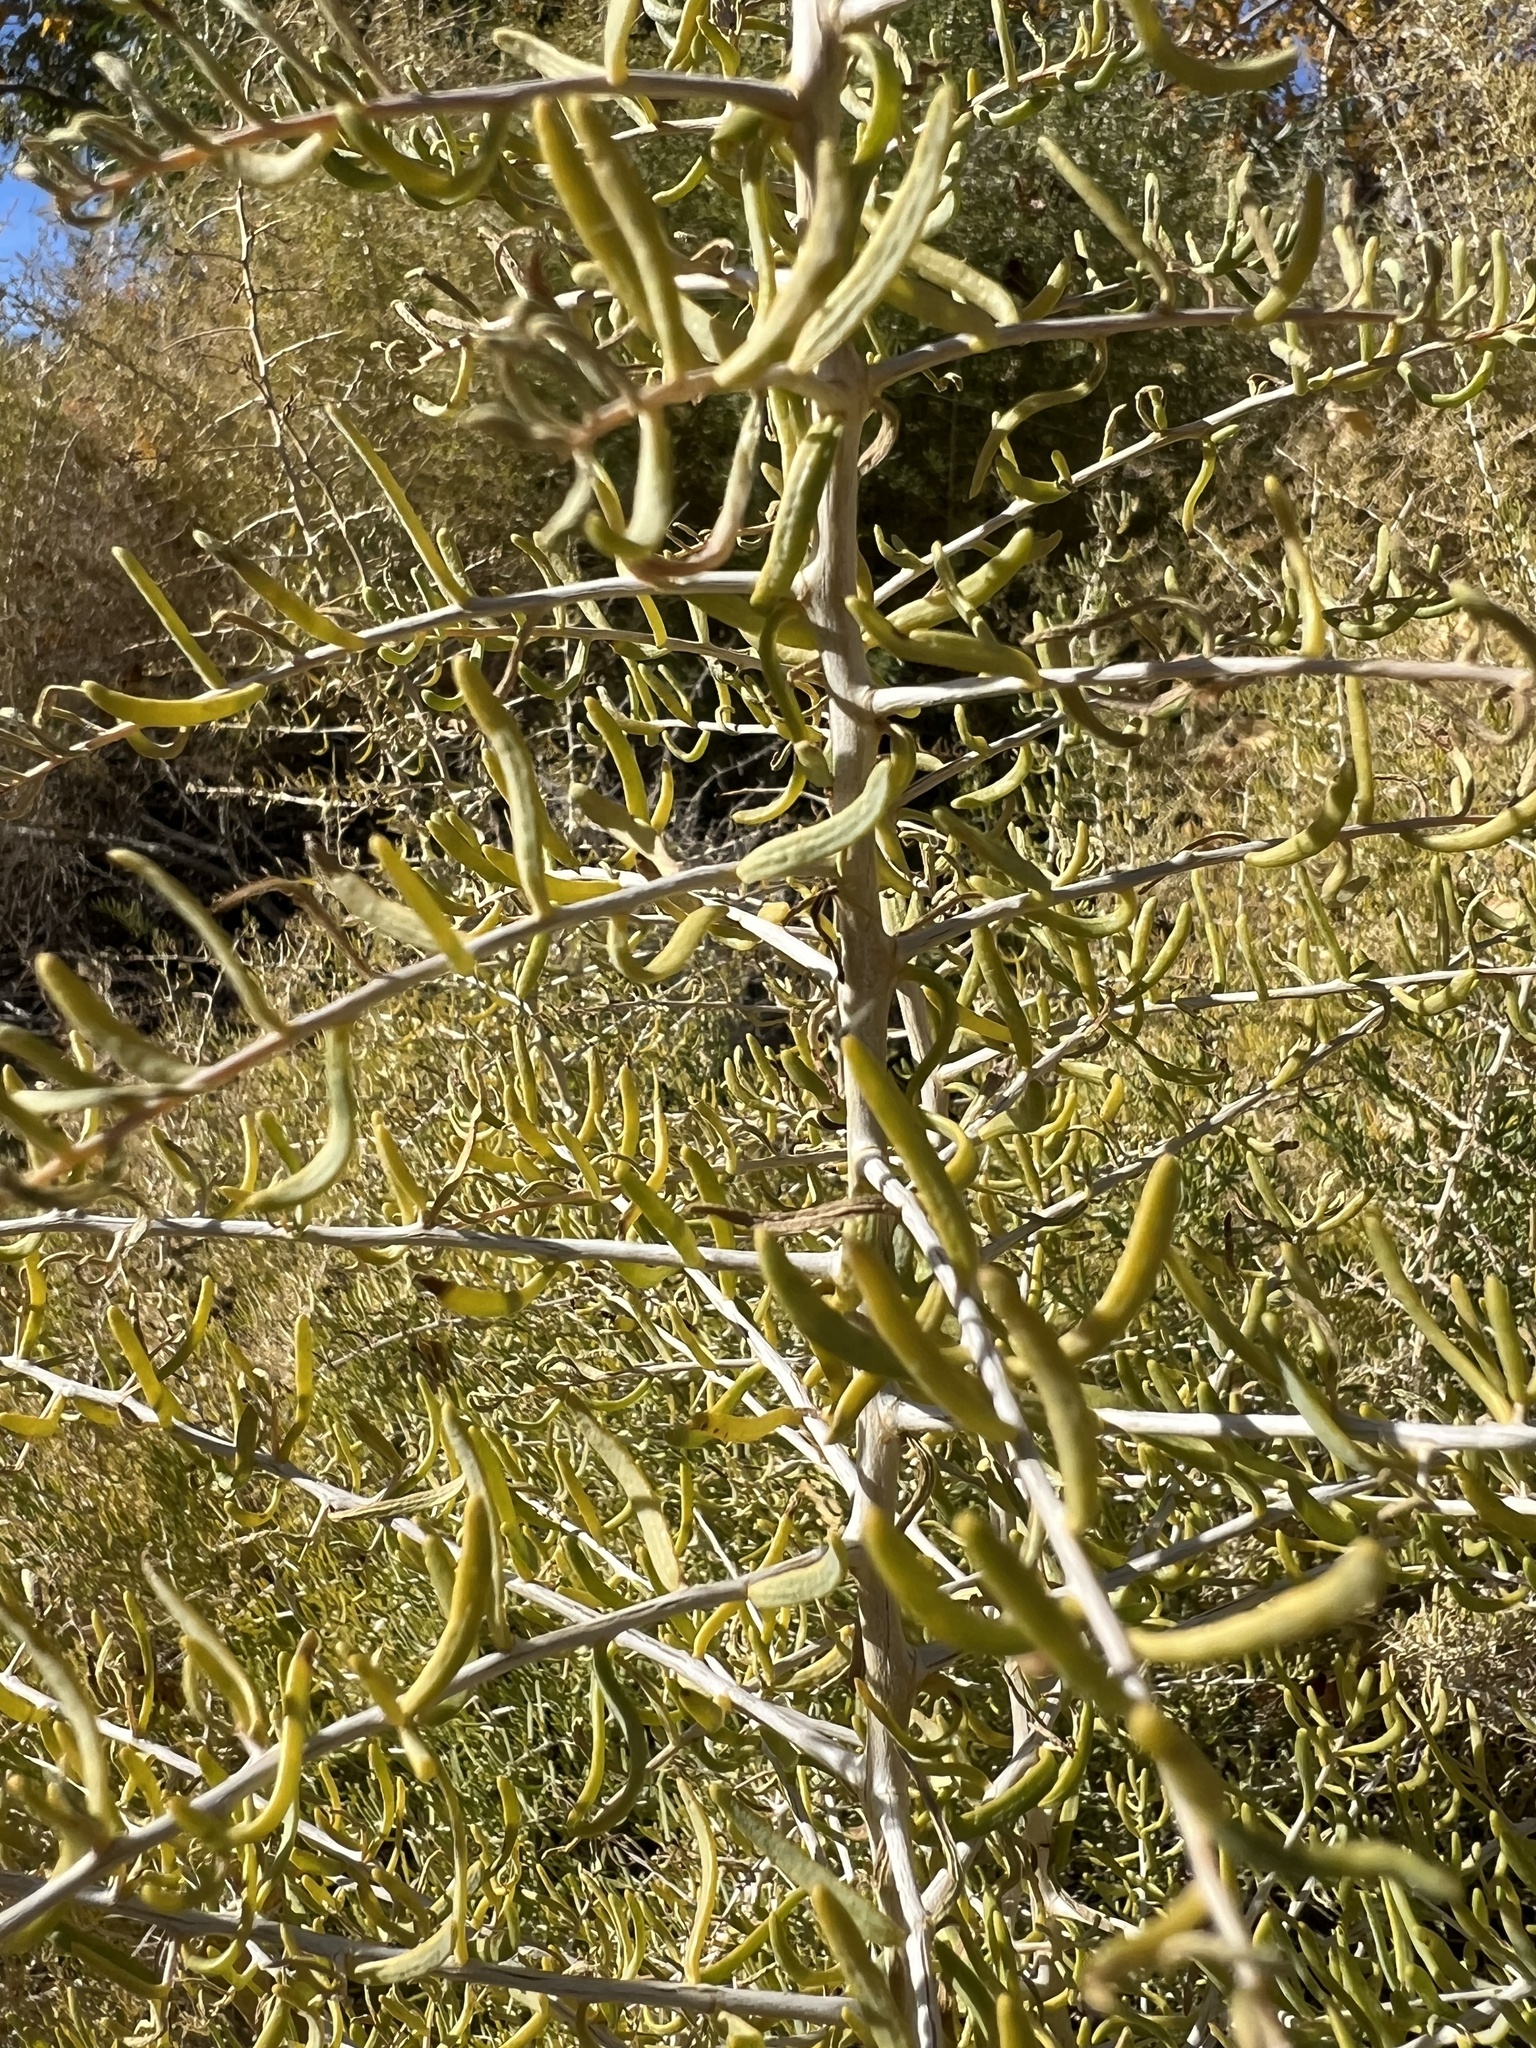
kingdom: Plantae
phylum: Tracheophyta
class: Magnoliopsida
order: Caryophyllales
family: Sarcobataceae
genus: Sarcobatus
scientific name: Sarcobatus vermiculatus
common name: Greasewood
